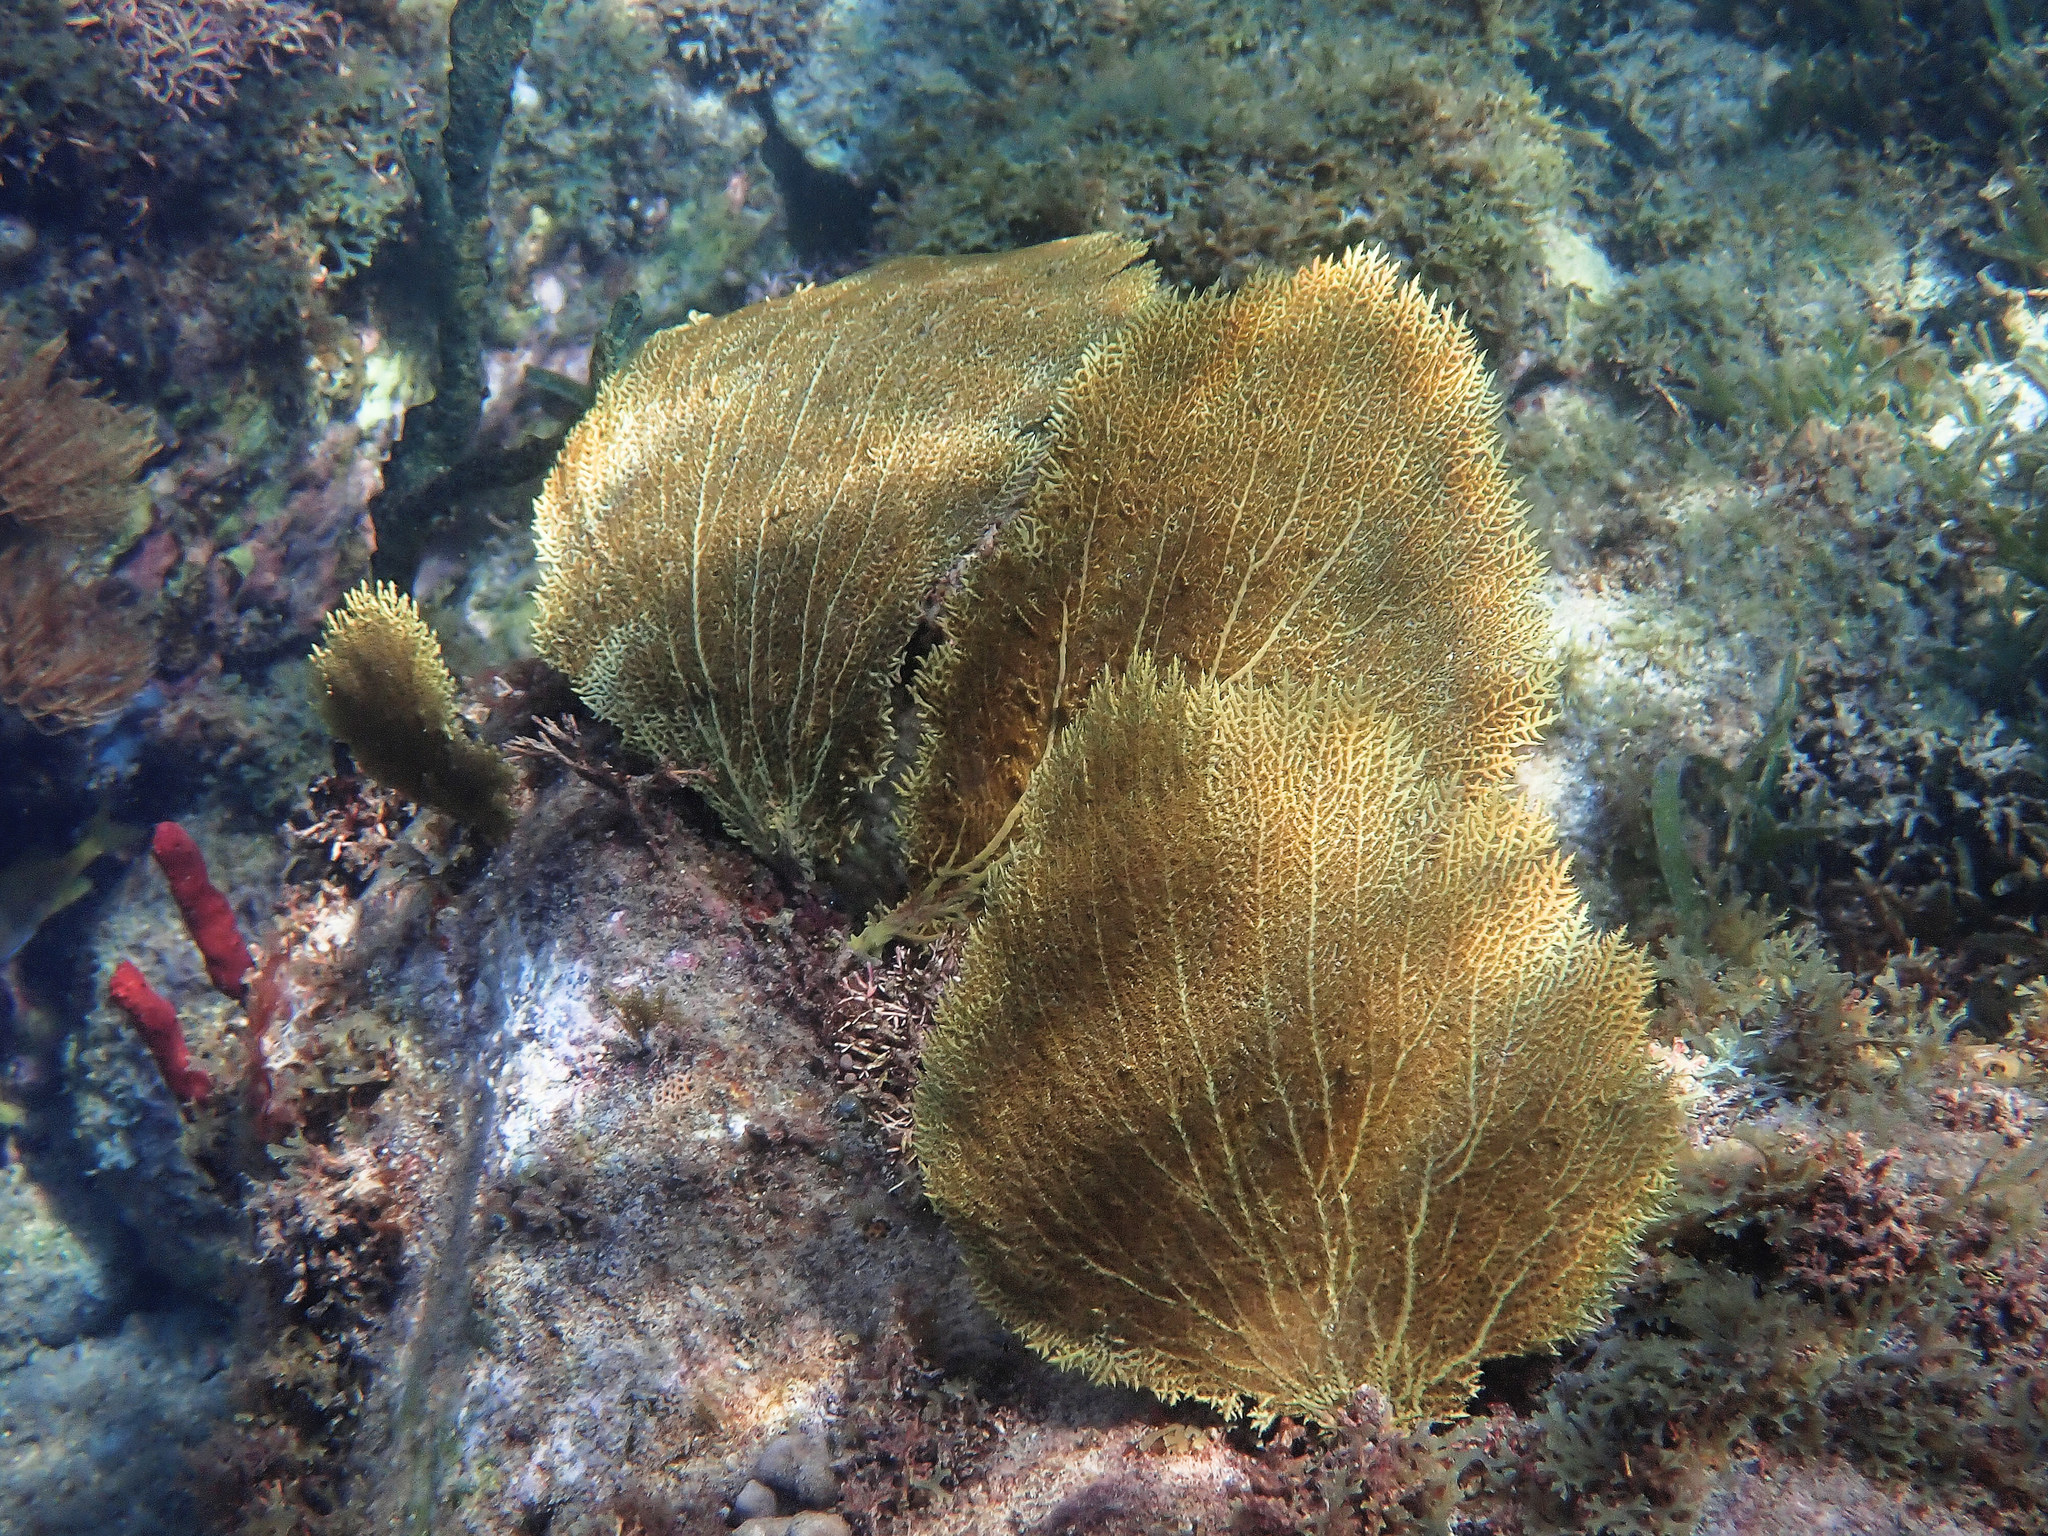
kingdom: Animalia
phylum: Cnidaria
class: Anthozoa
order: Malacalcyonacea
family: Gorgoniidae
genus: Gorgonia
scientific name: Gorgonia ventalina
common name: Common sea fan
